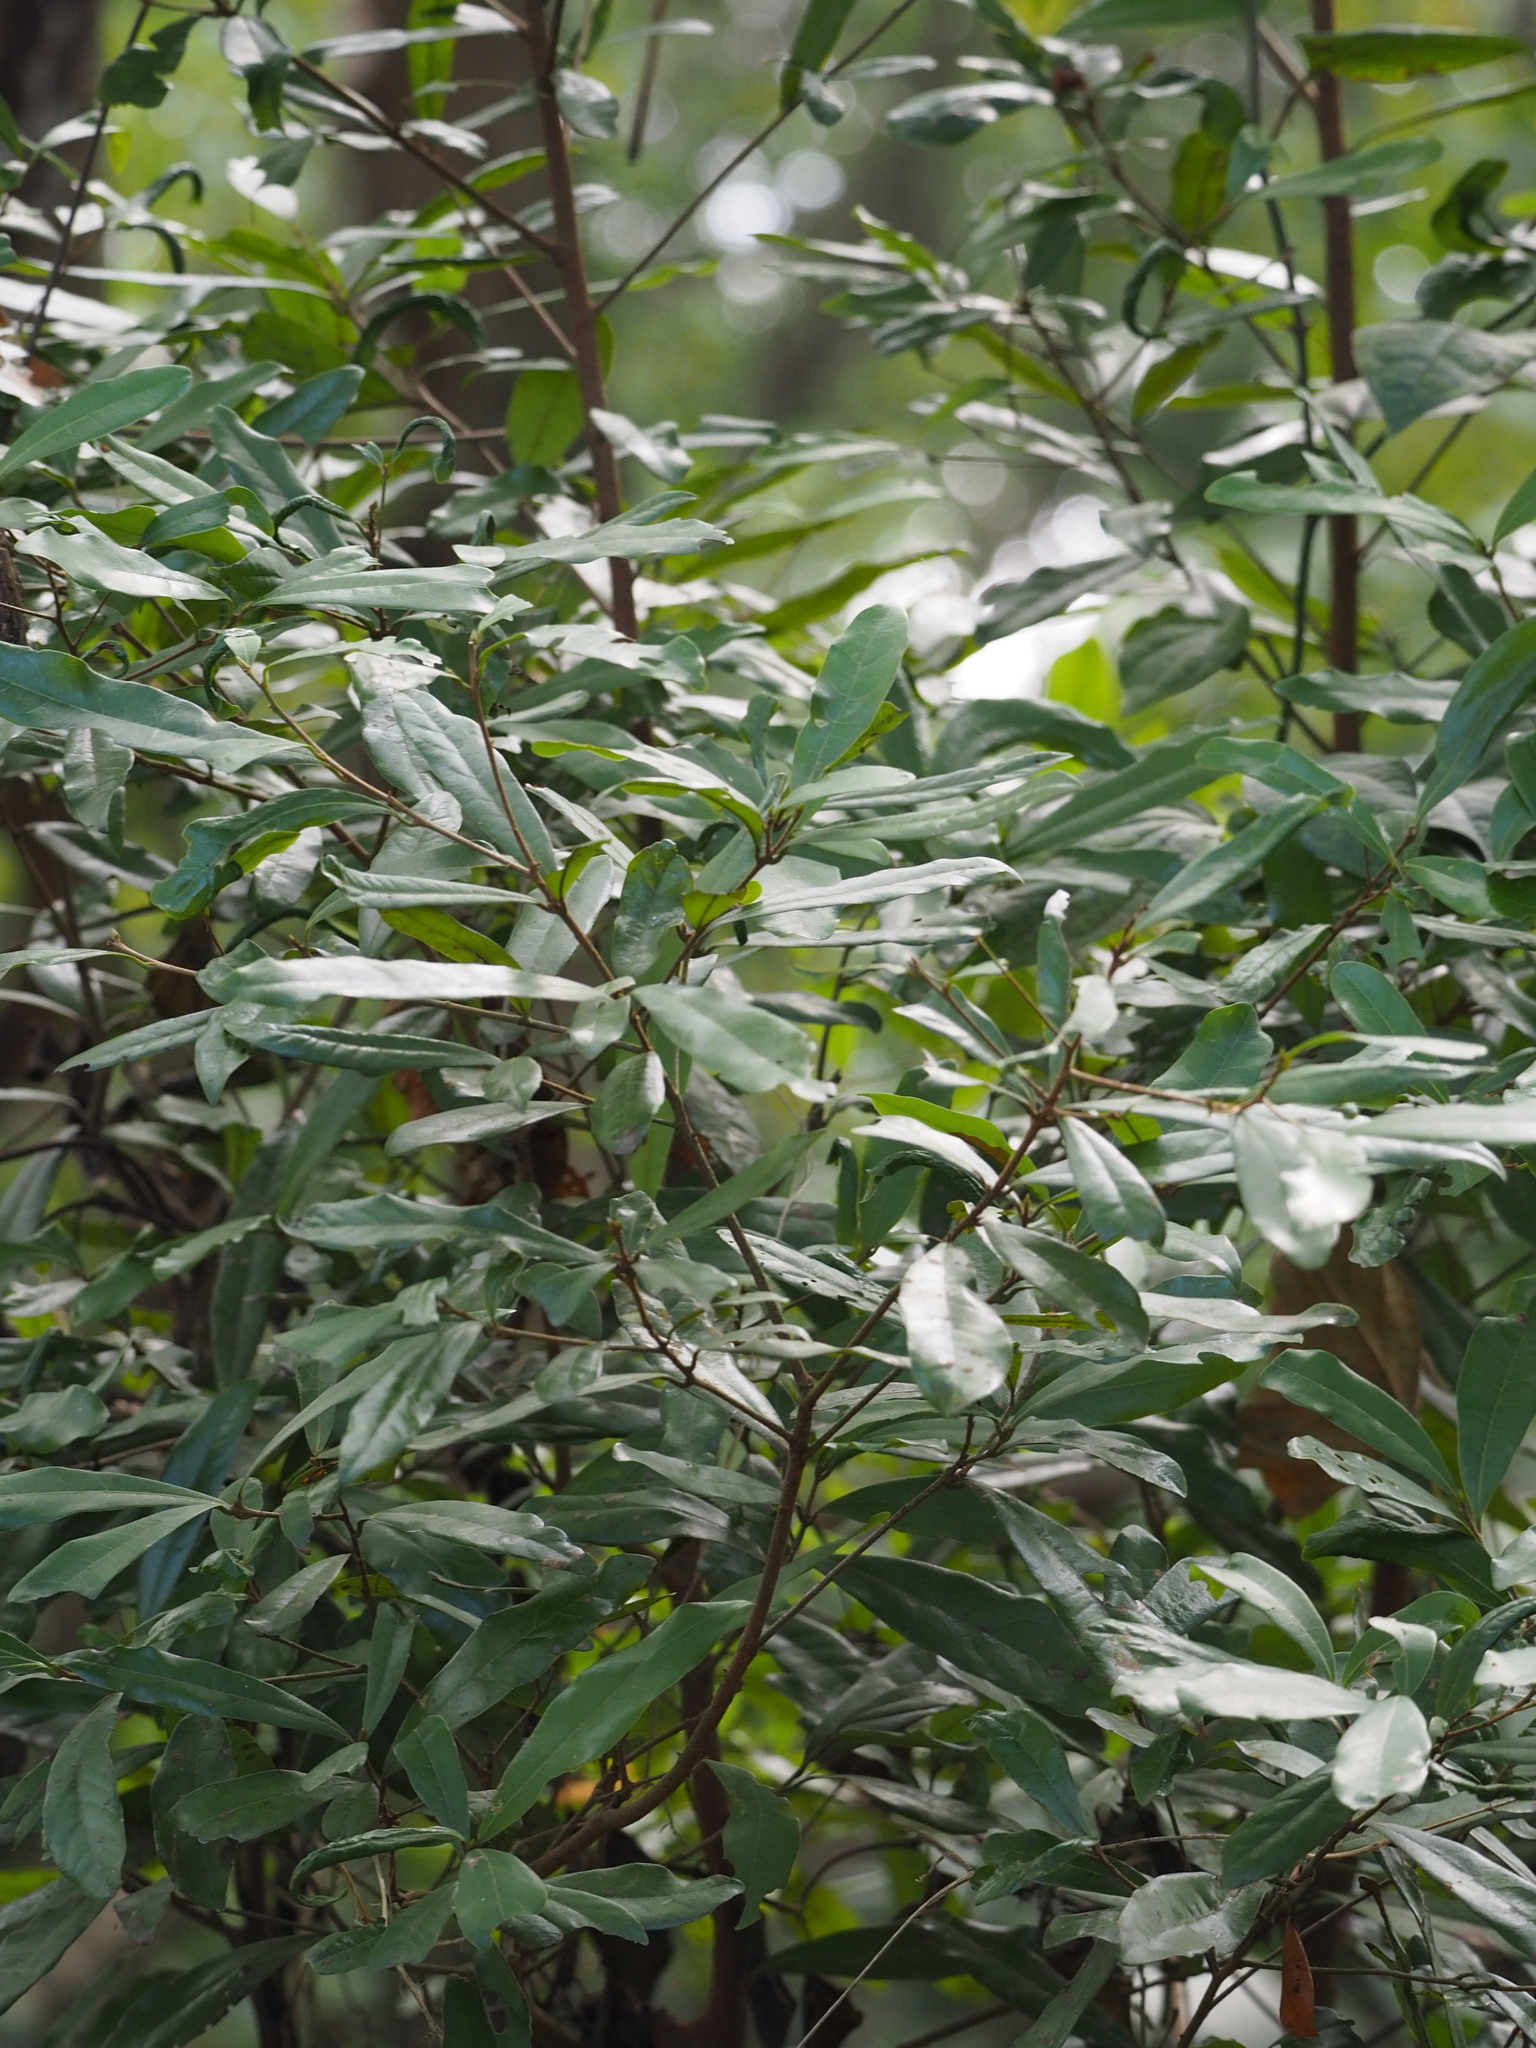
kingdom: Plantae
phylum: Tracheophyta
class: Magnoliopsida
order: Laurales
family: Lauraceae
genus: Litsea
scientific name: Litsea hypophaea
